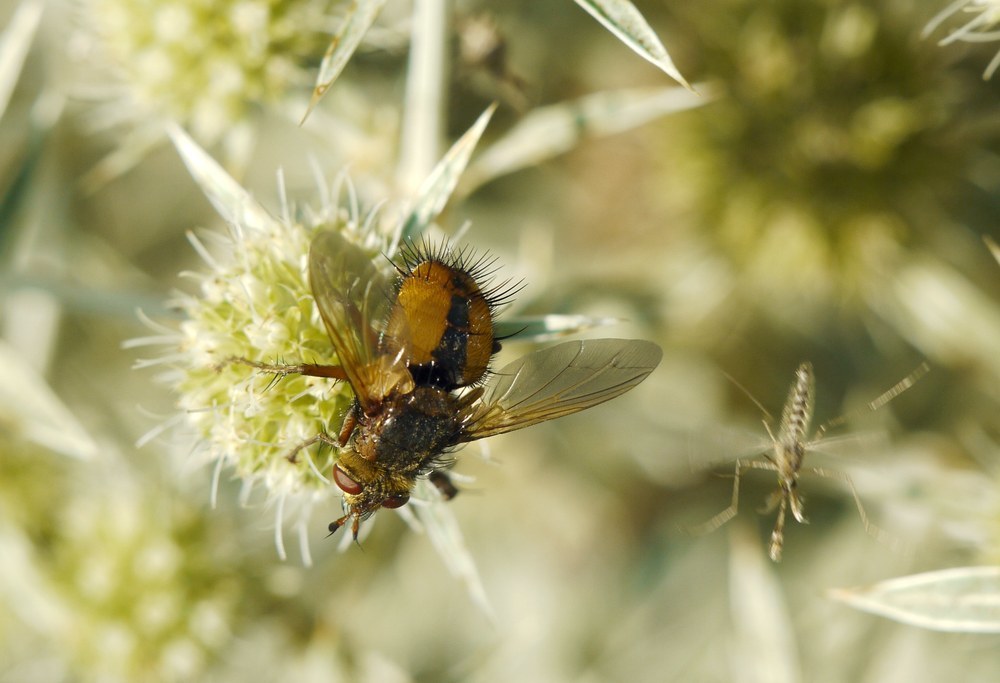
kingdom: Animalia
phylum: Arthropoda
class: Insecta
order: Diptera
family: Tachinidae
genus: Tachina
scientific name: Tachina fera
